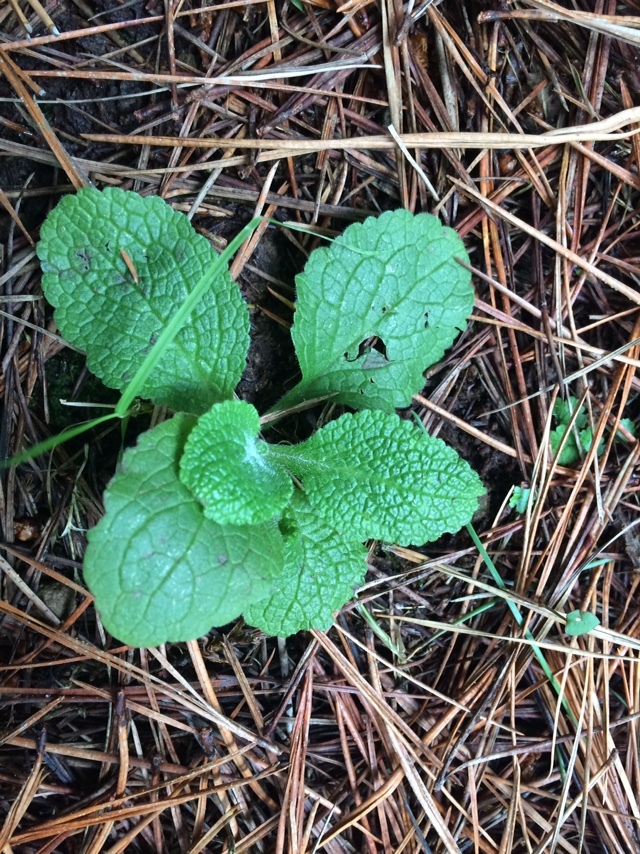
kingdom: Plantae
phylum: Tracheophyta
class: Magnoliopsida
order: Lamiales
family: Plantaginaceae
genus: Digitalis
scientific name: Digitalis purpurea
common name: Foxglove
